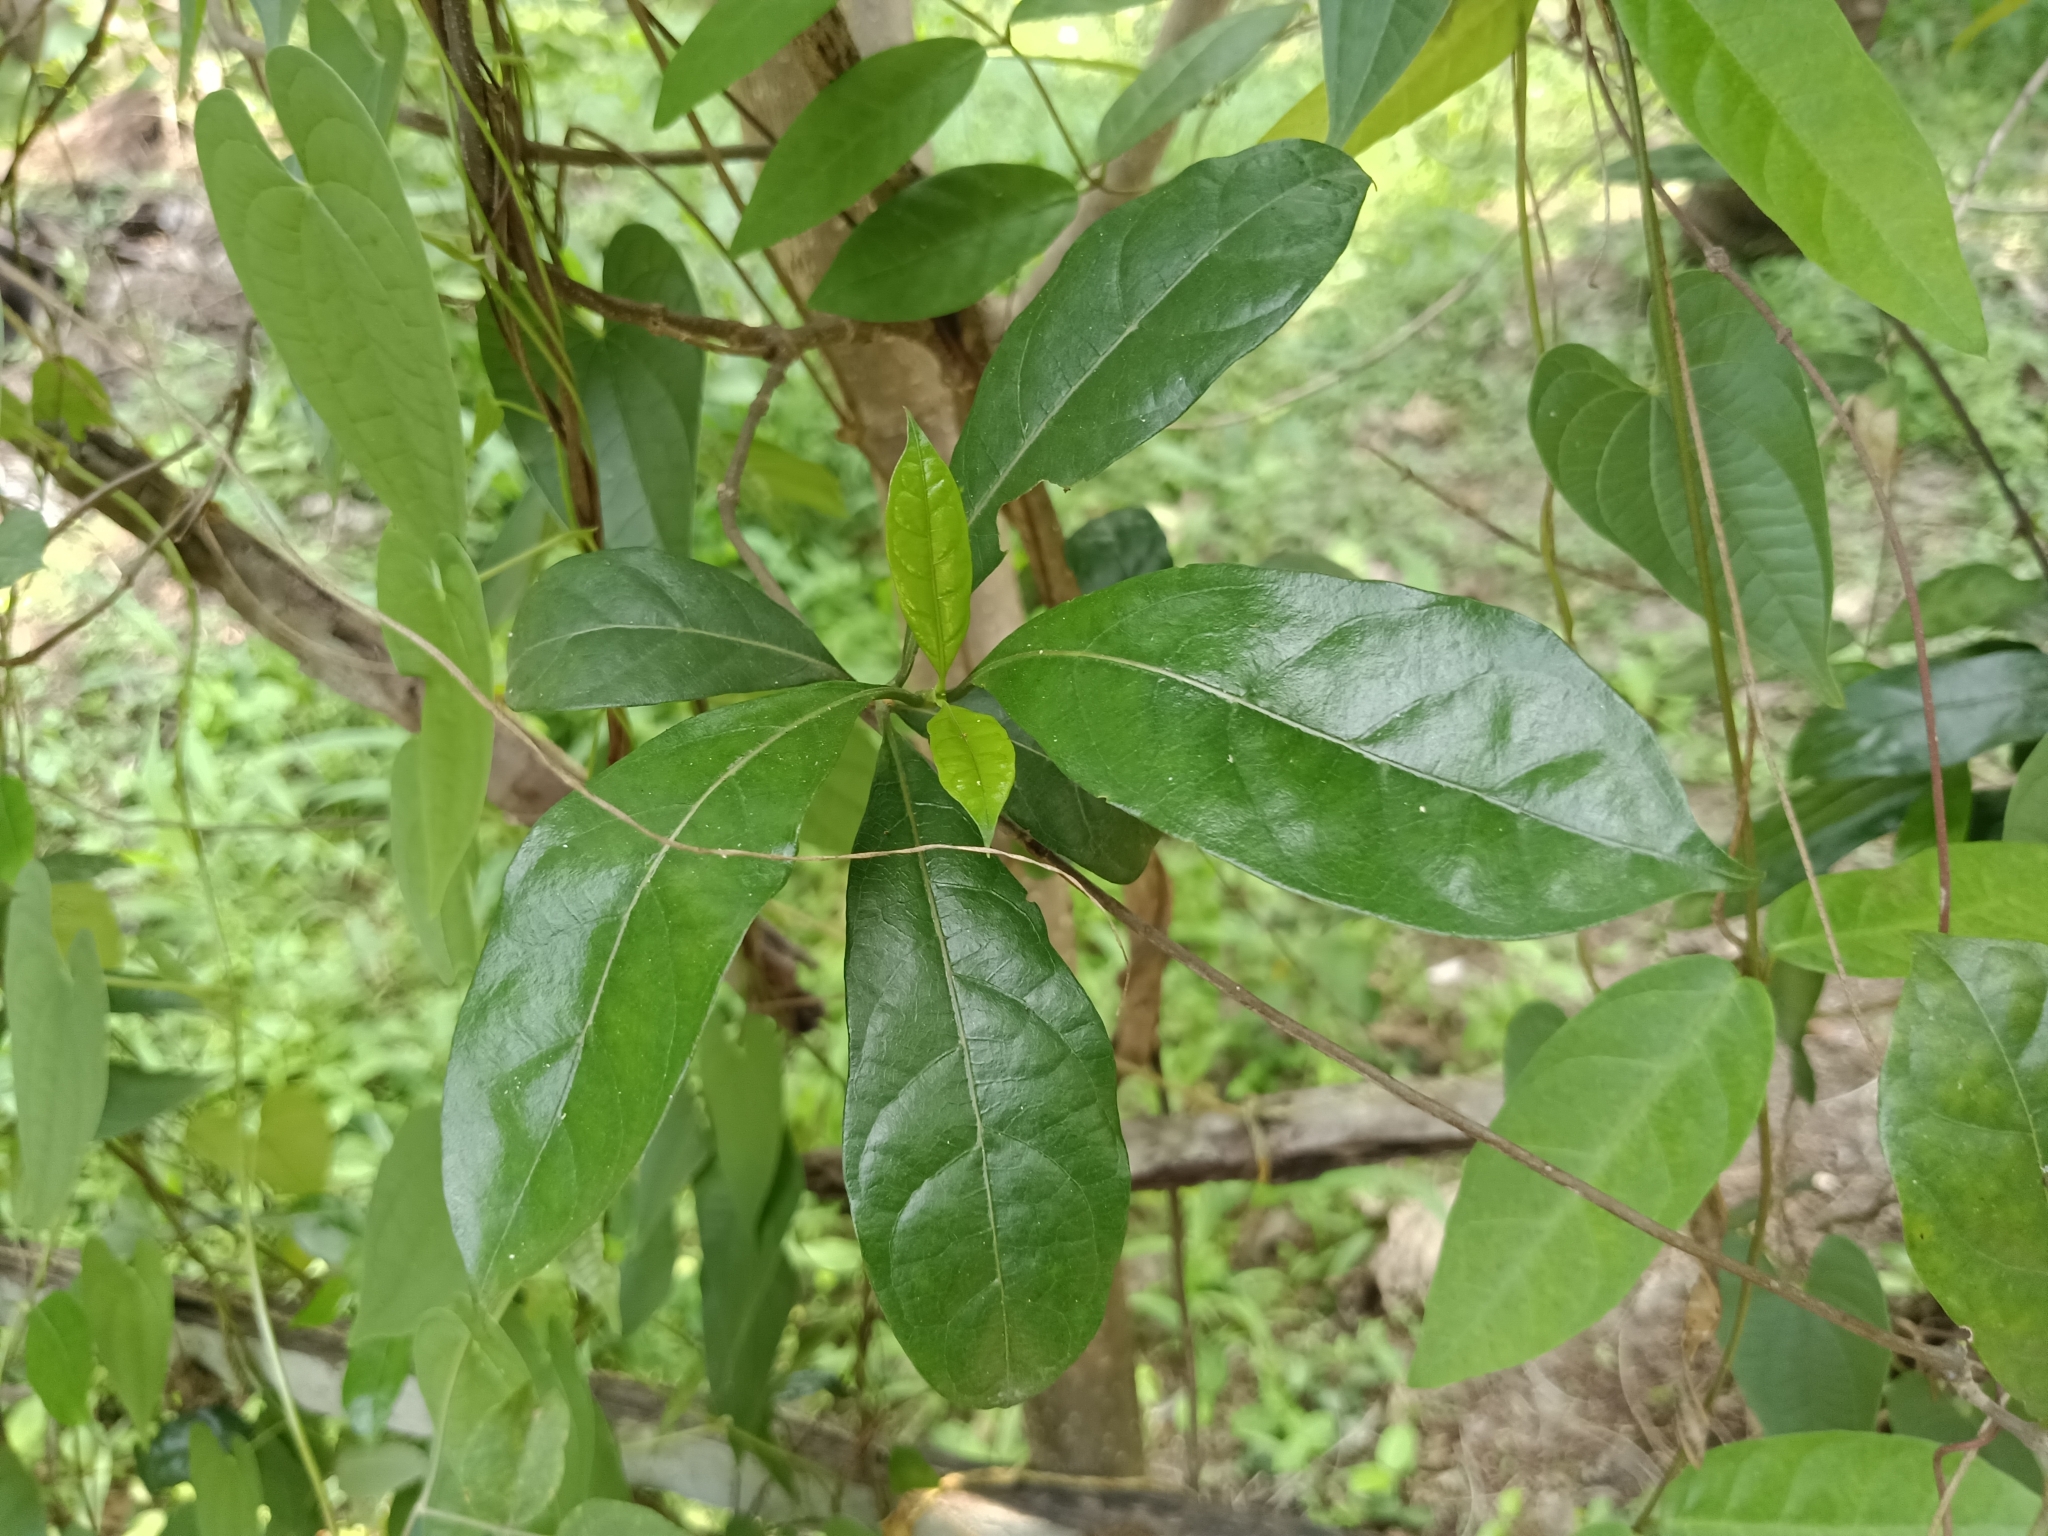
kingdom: Plantae
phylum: Tracheophyta
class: Magnoliopsida
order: Gentianales
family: Apocynaceae
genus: Ichnocarpus
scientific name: Ichnocarpus frutescens
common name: Ichnocarpus
